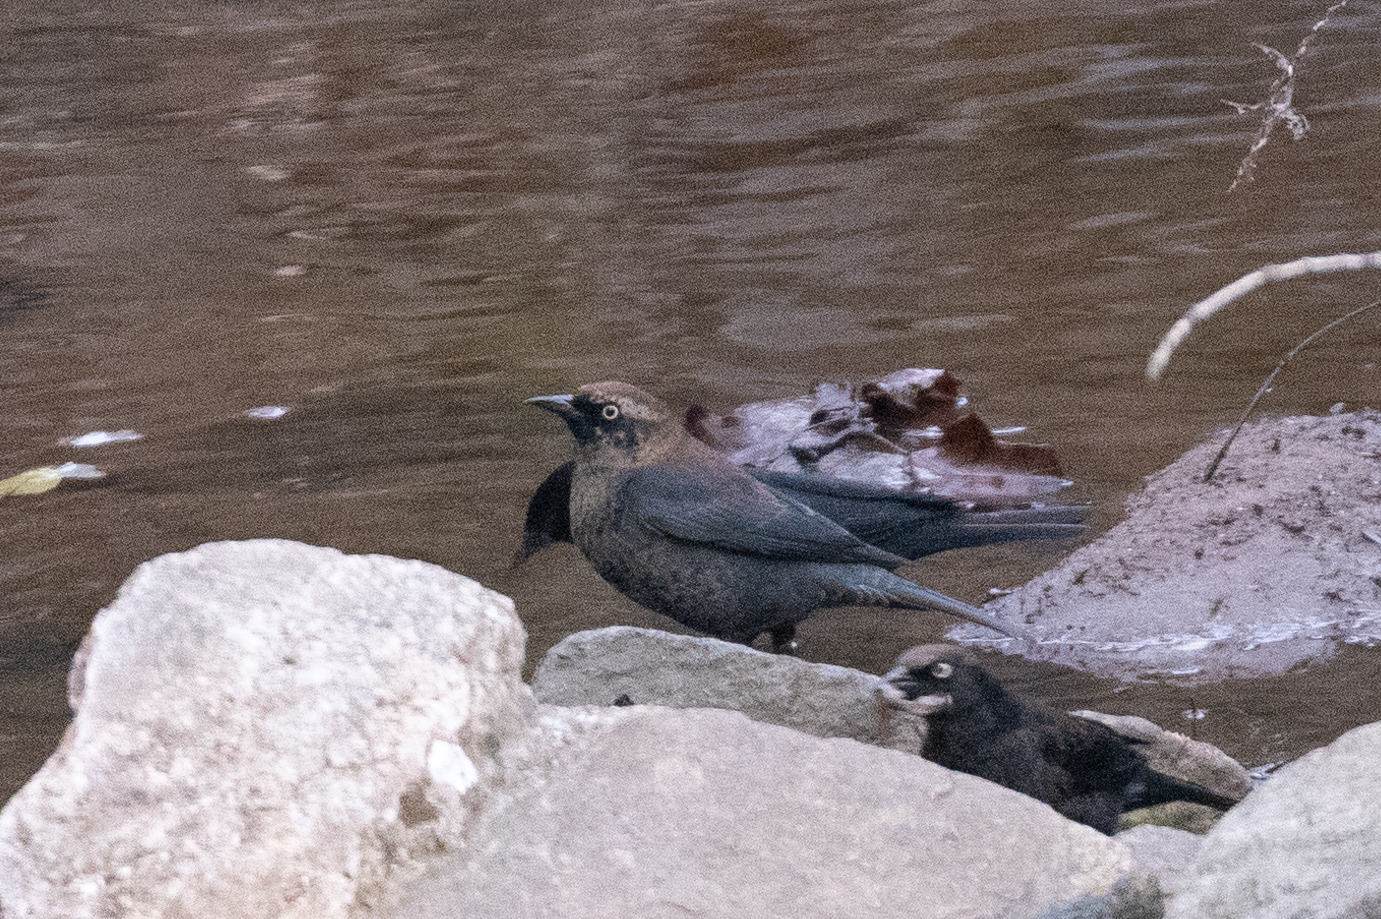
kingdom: Animalia
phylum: Chordata
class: Aves
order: Passeriformes
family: Icteridae
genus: Euphagus
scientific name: Euphagus carolinus
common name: Rusty blackbird
